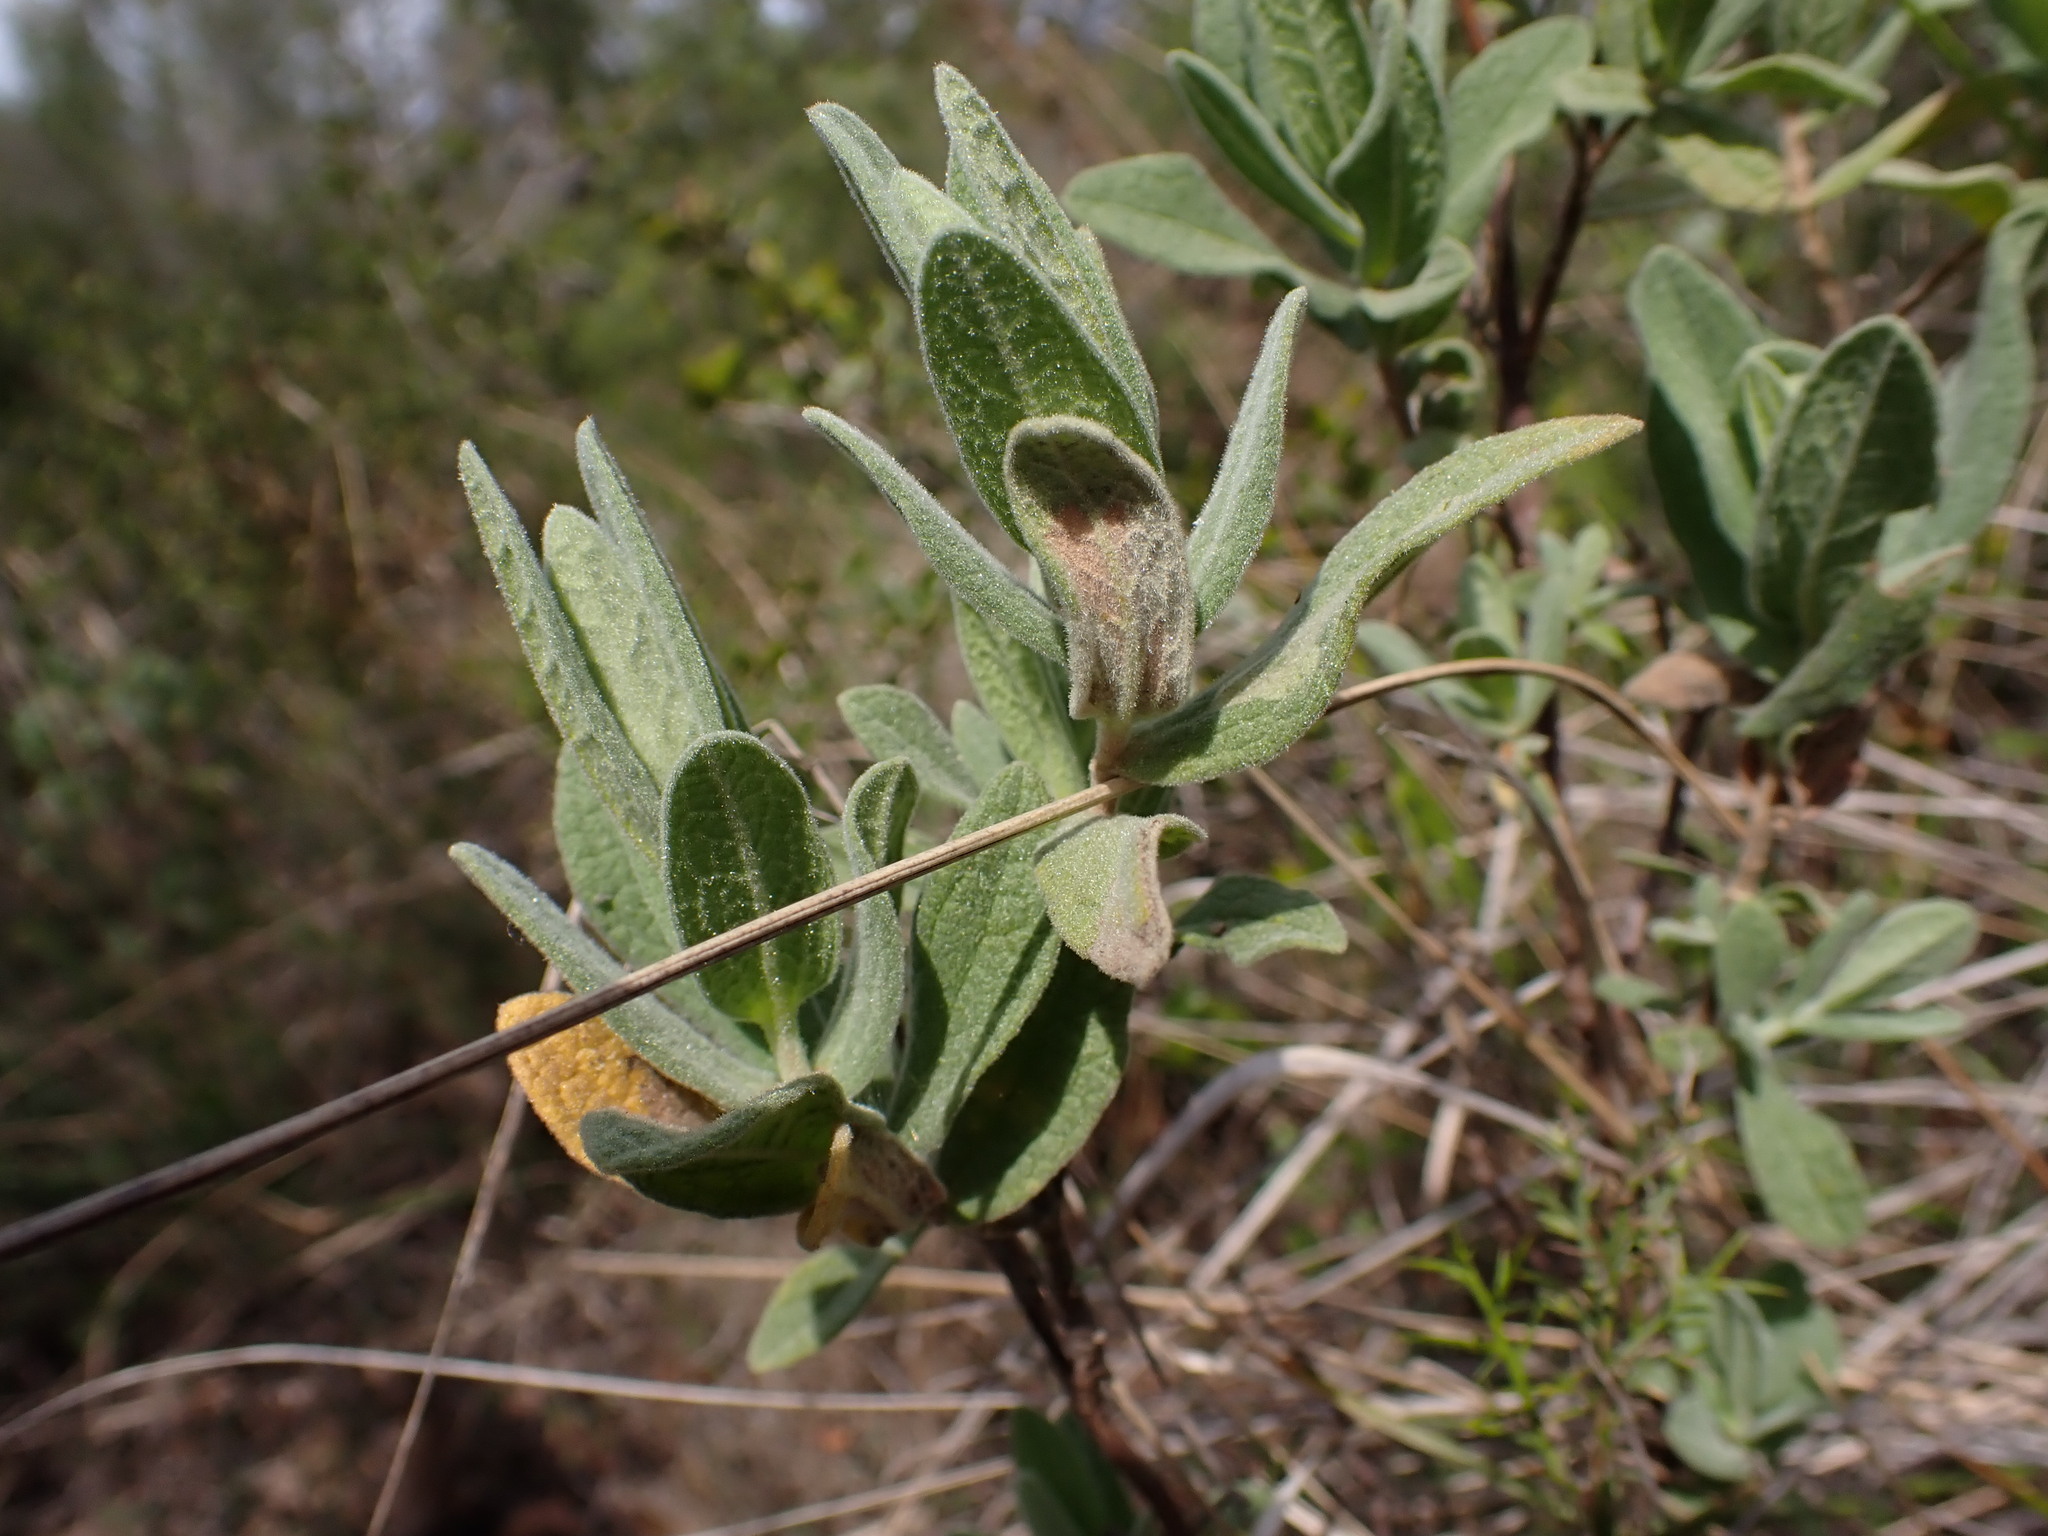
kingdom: Plantae
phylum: Tracheophyta
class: Magnoliopsida
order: Malvales
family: Cistaceae
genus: Cistus
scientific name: Cistus albidus
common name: White-leaf rock-rose
